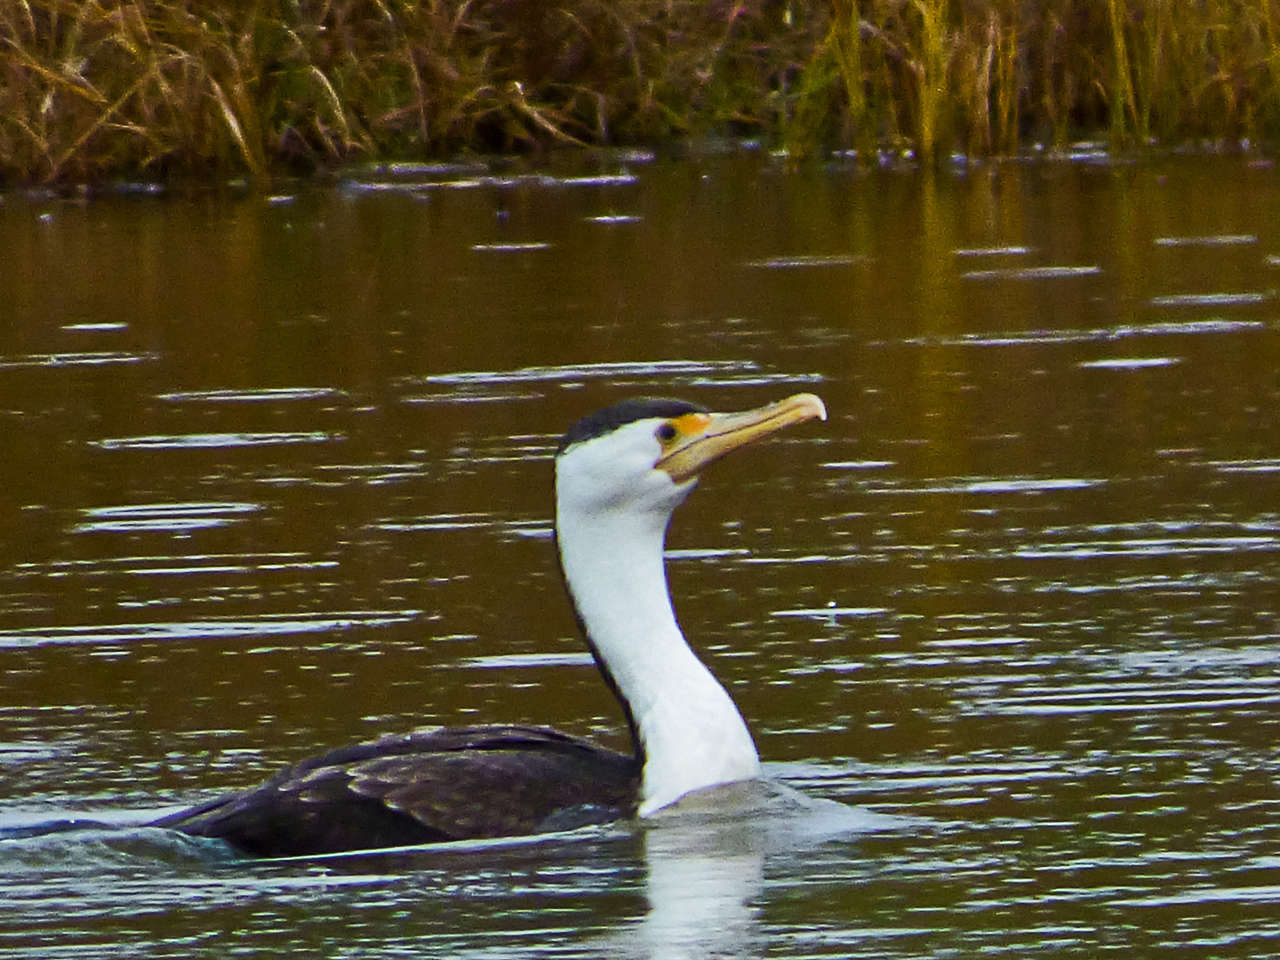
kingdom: Animalia
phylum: Chordata
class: Aves
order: Suliformes
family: Phalacrocoracidae
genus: Phalacrocorax
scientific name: Phalacrocorax varius
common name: Pied cormorant
